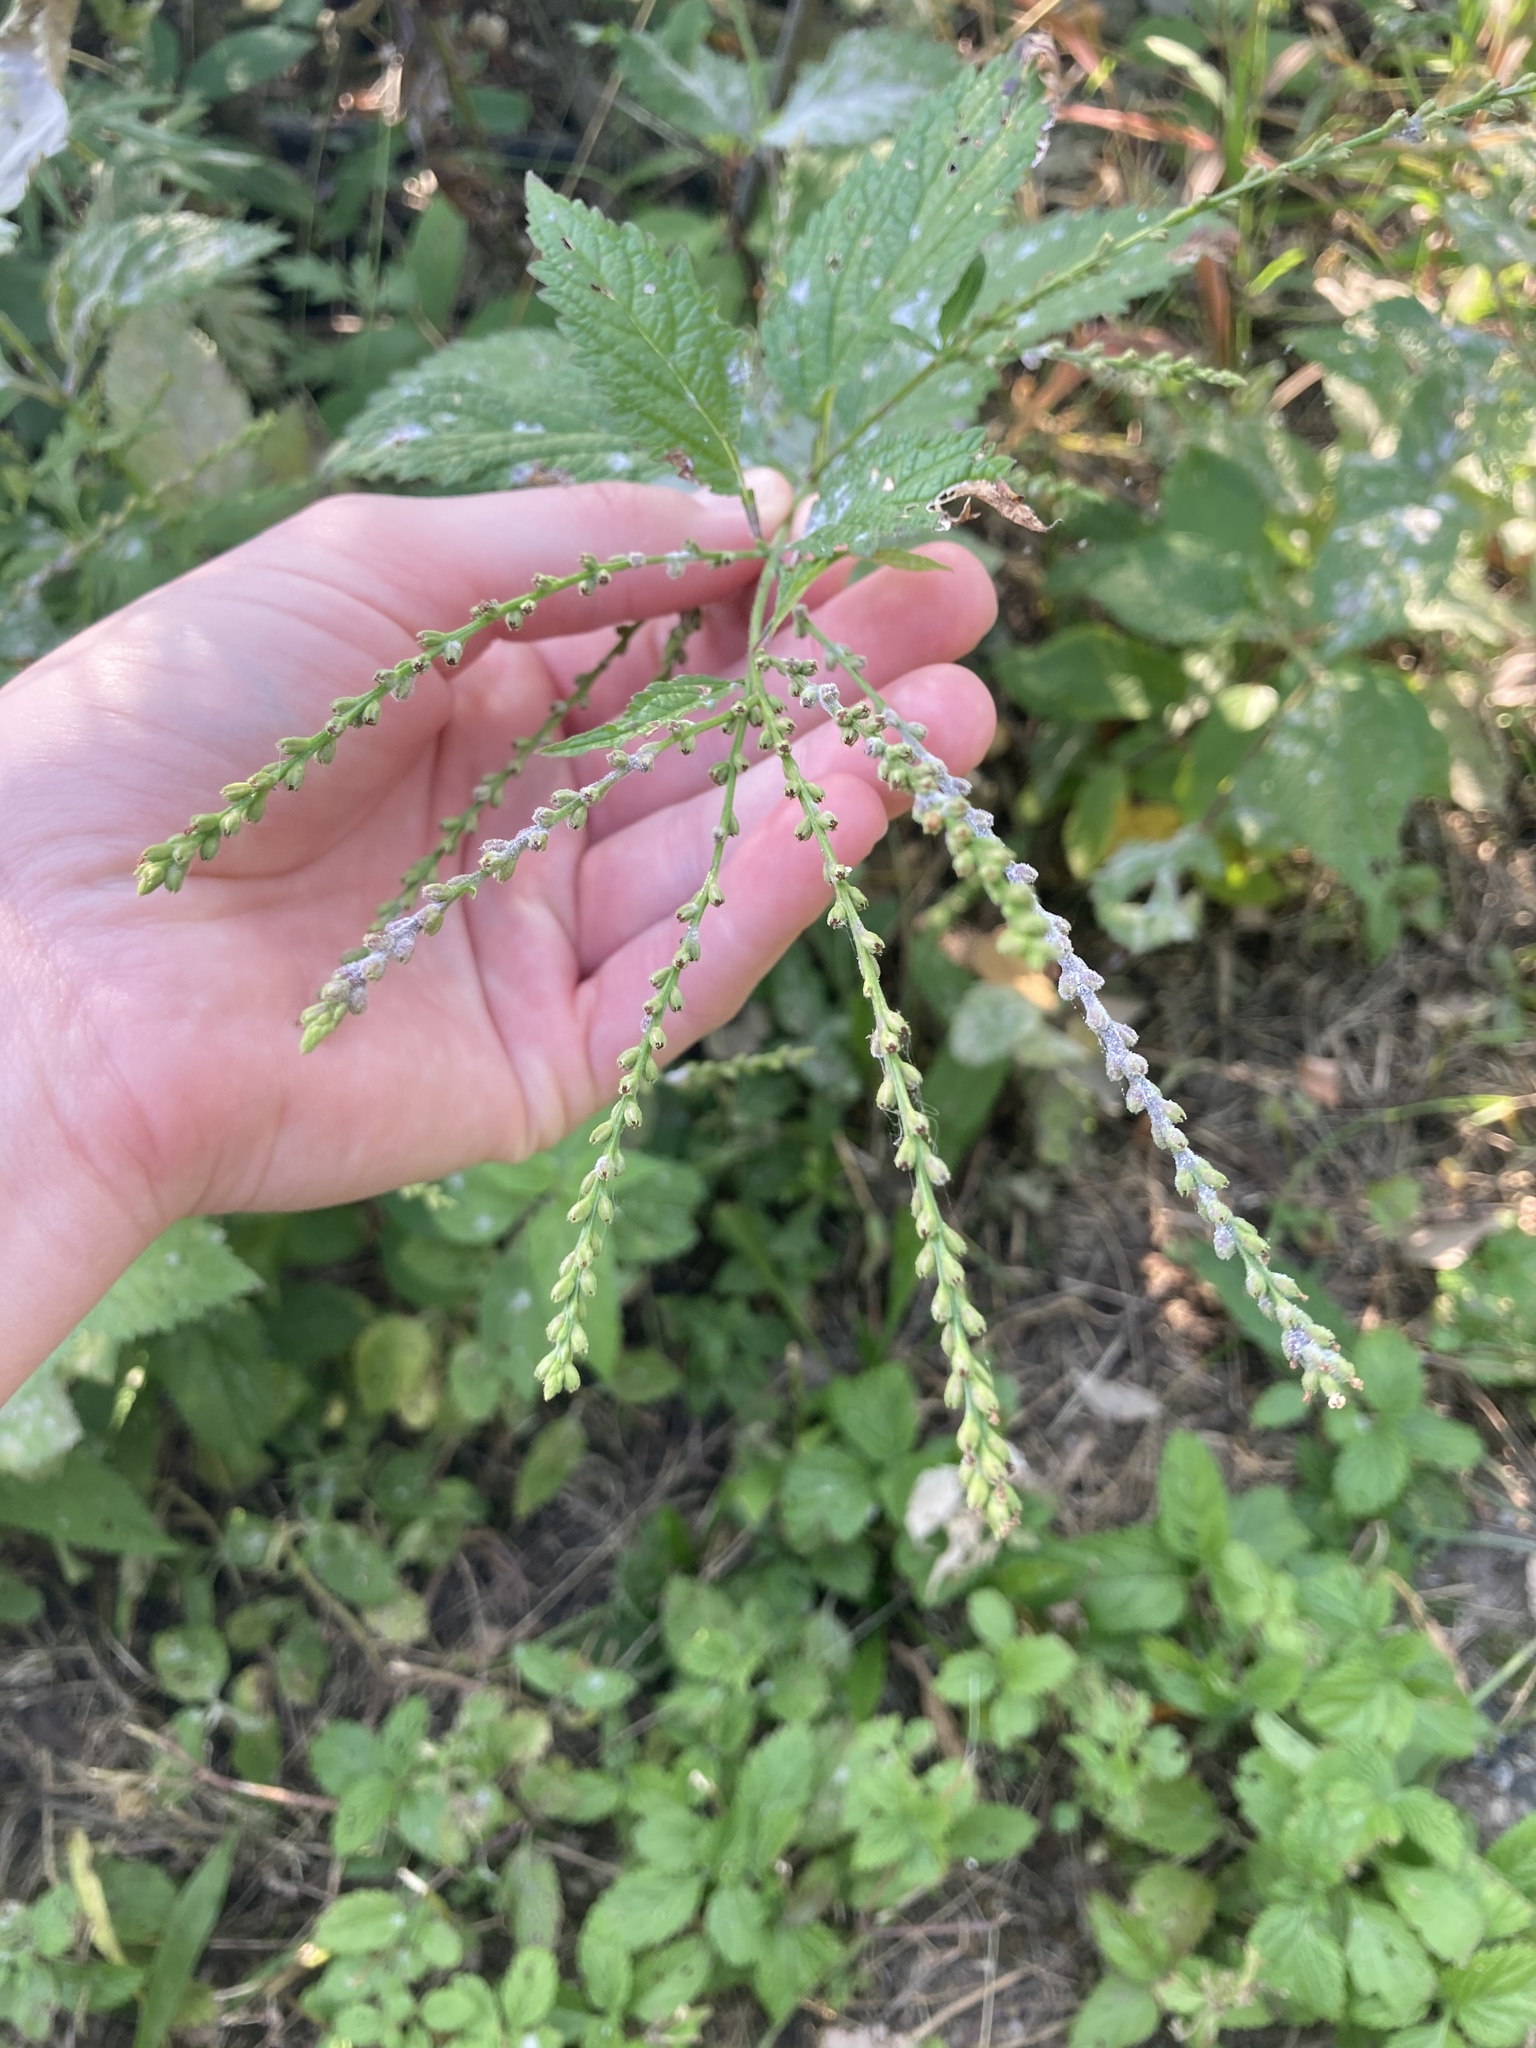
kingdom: Plantae
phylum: Tracheophyta
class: Magnoliopsida
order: Lamiales
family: Verbenaceae
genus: Verbena
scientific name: Verbena urticifolia
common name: Nettle-leaved vervain
